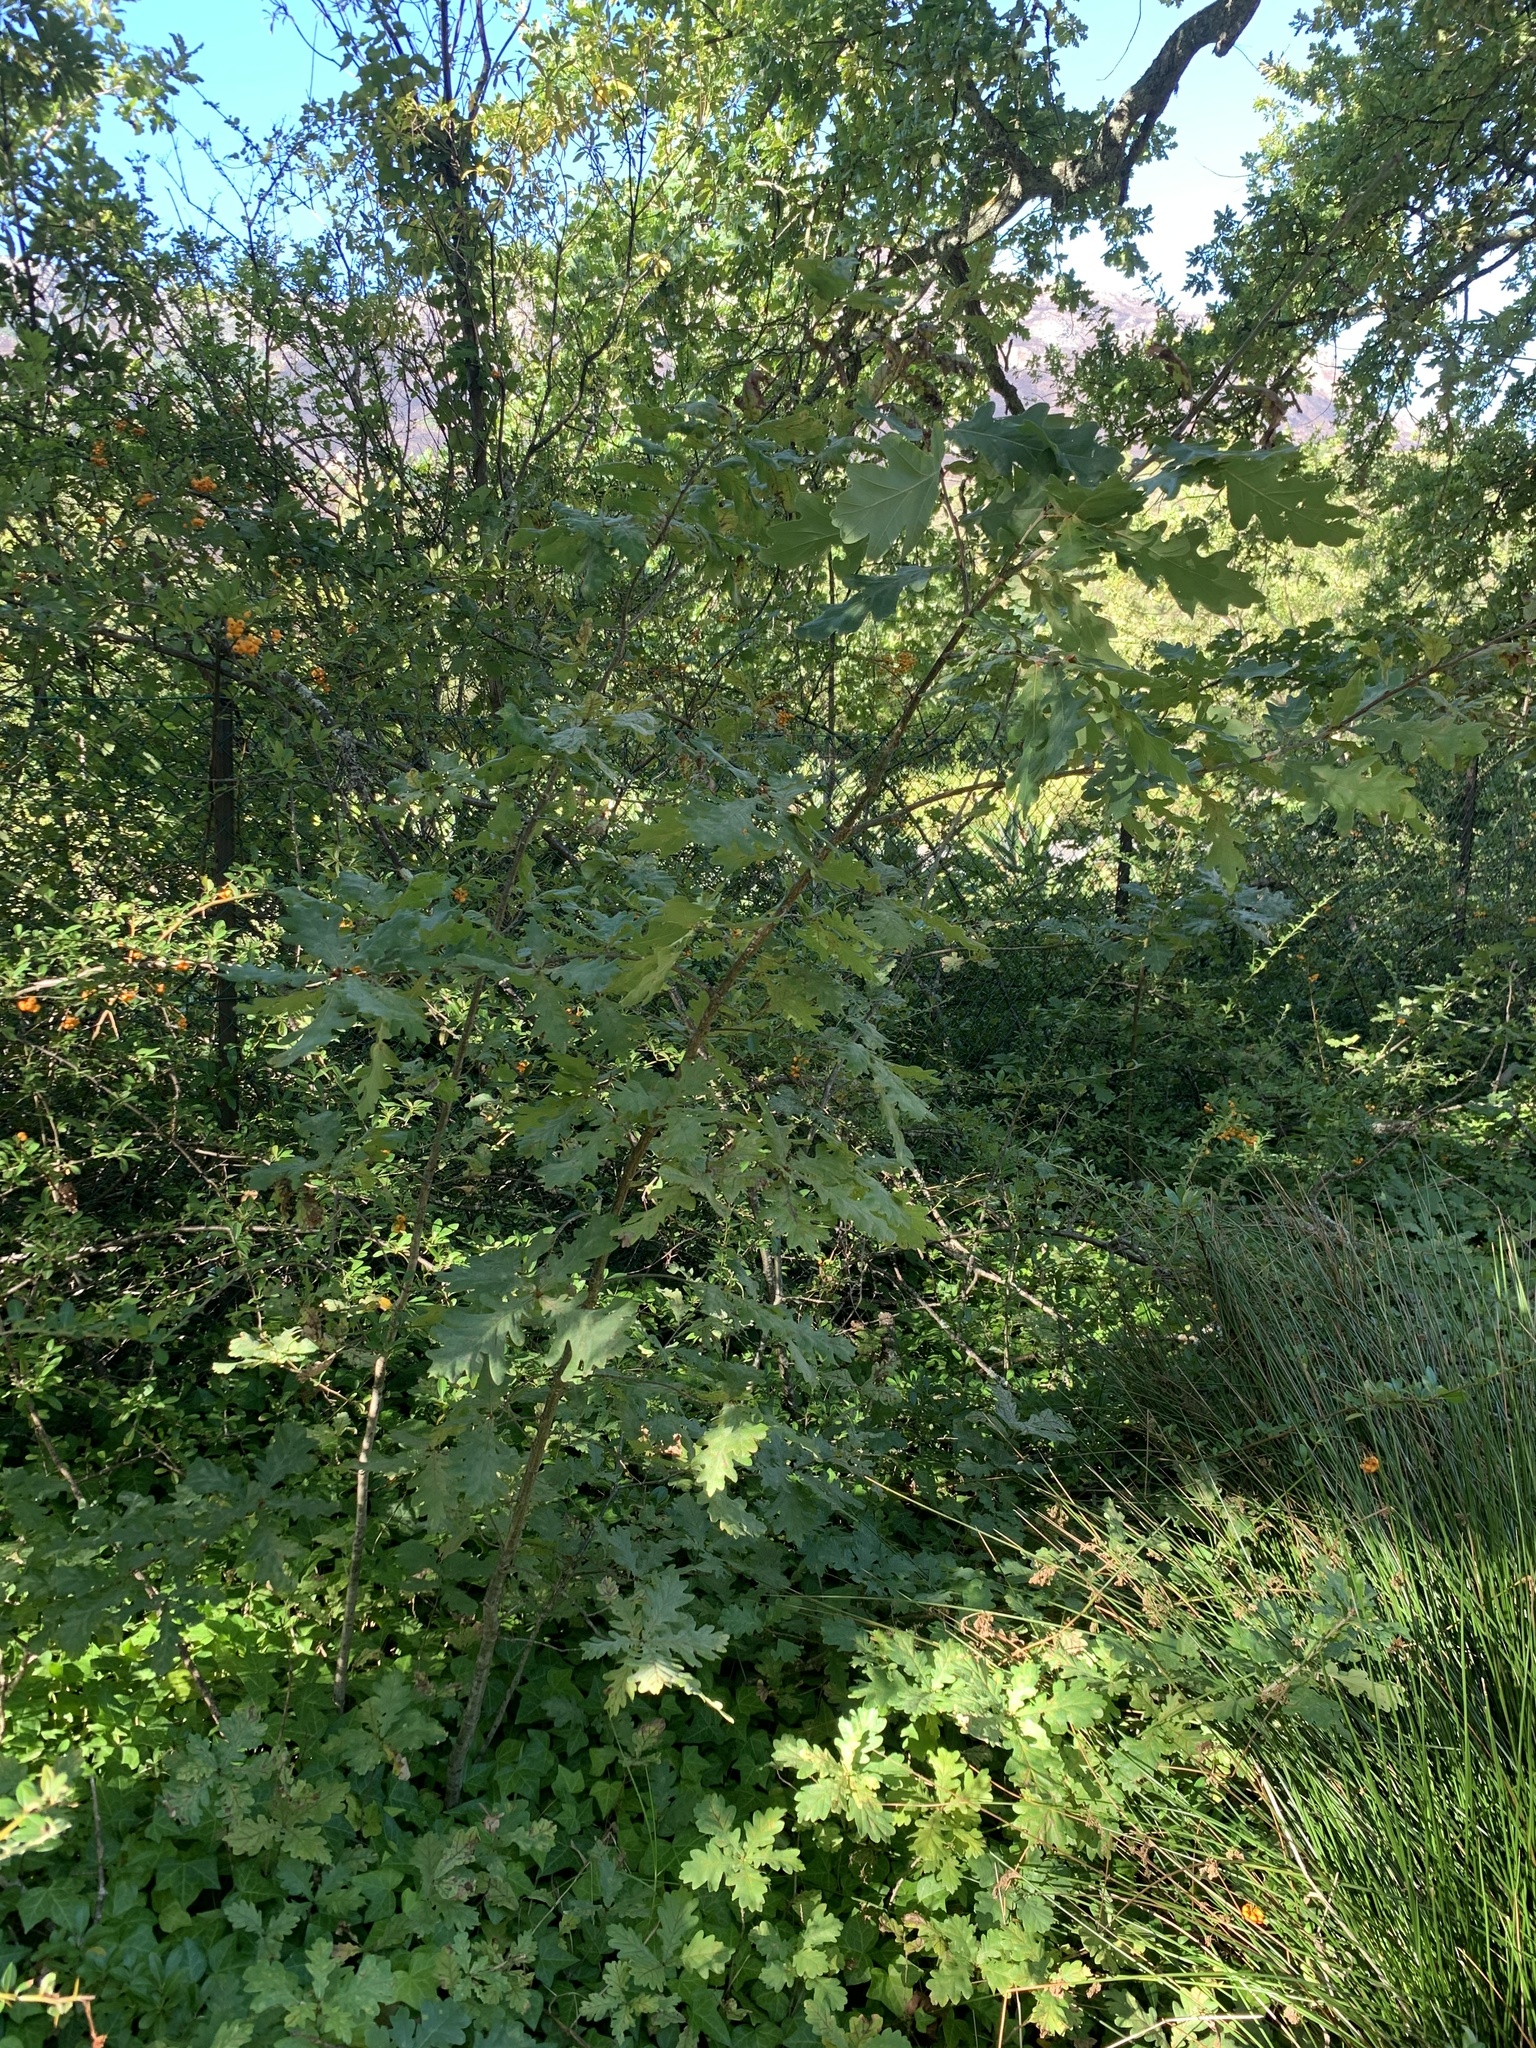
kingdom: Plantae
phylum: Tracheophyta
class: Magnoliopsida
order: Fagales
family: Fagaceae
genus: Quercus
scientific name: Quercus robur
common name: Pedunculate oak
